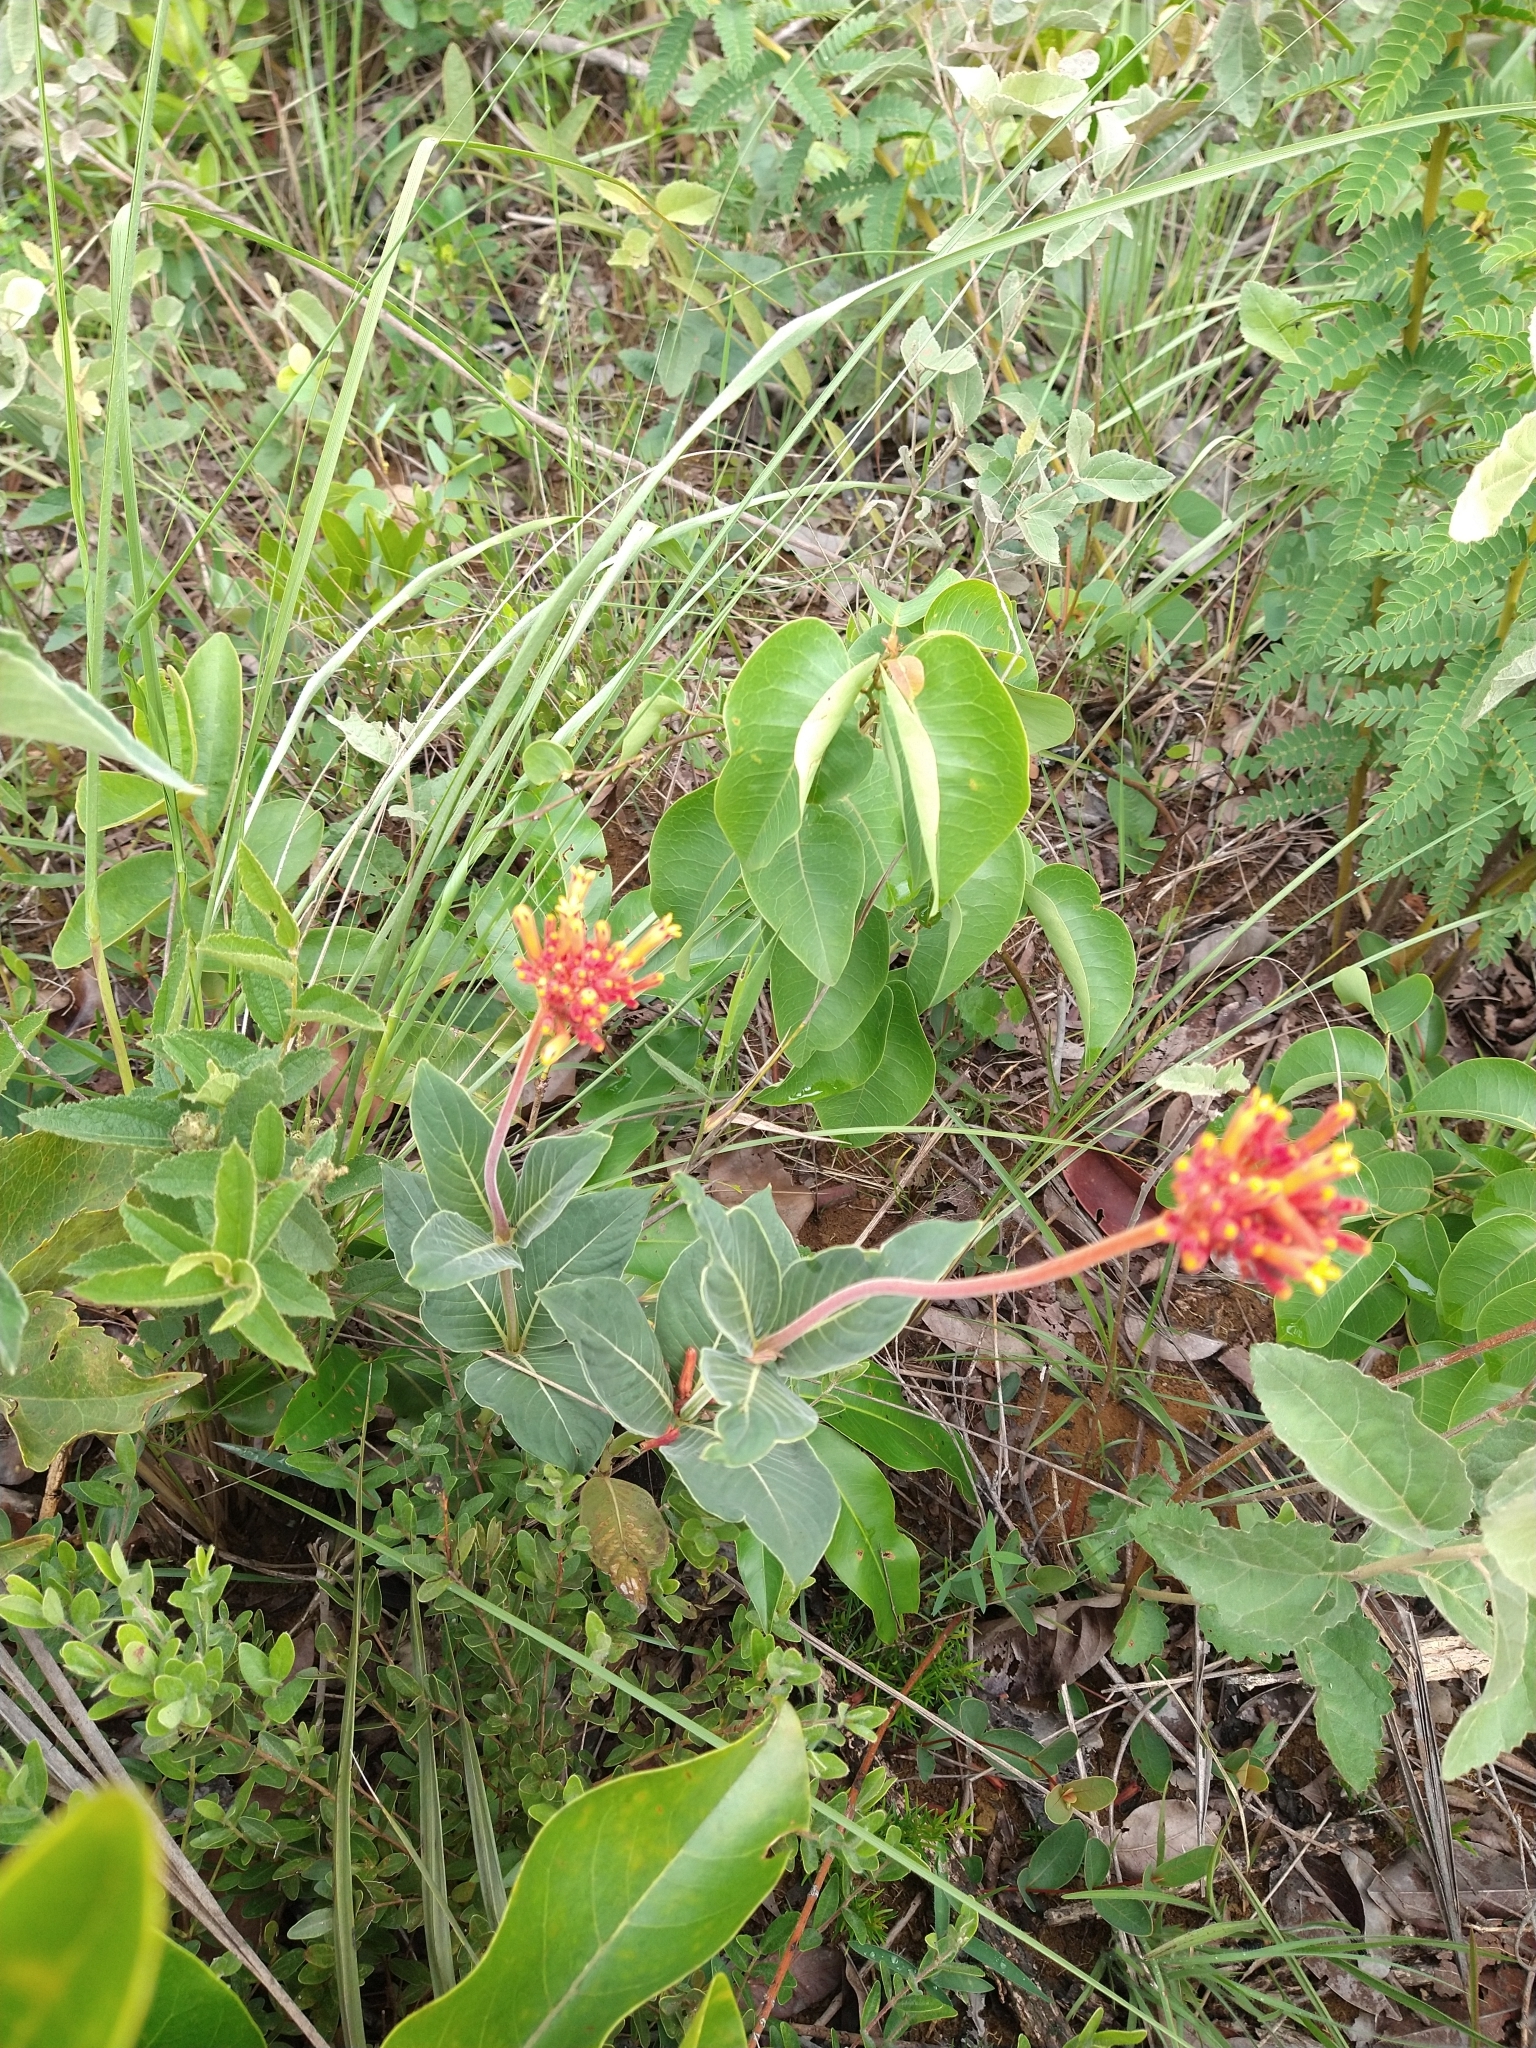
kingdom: Plantae
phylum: Tracheophyta
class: Magnoliopsida
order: Gentianales
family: Rubiaceae
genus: Palicourea
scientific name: Palicourea officinalis
